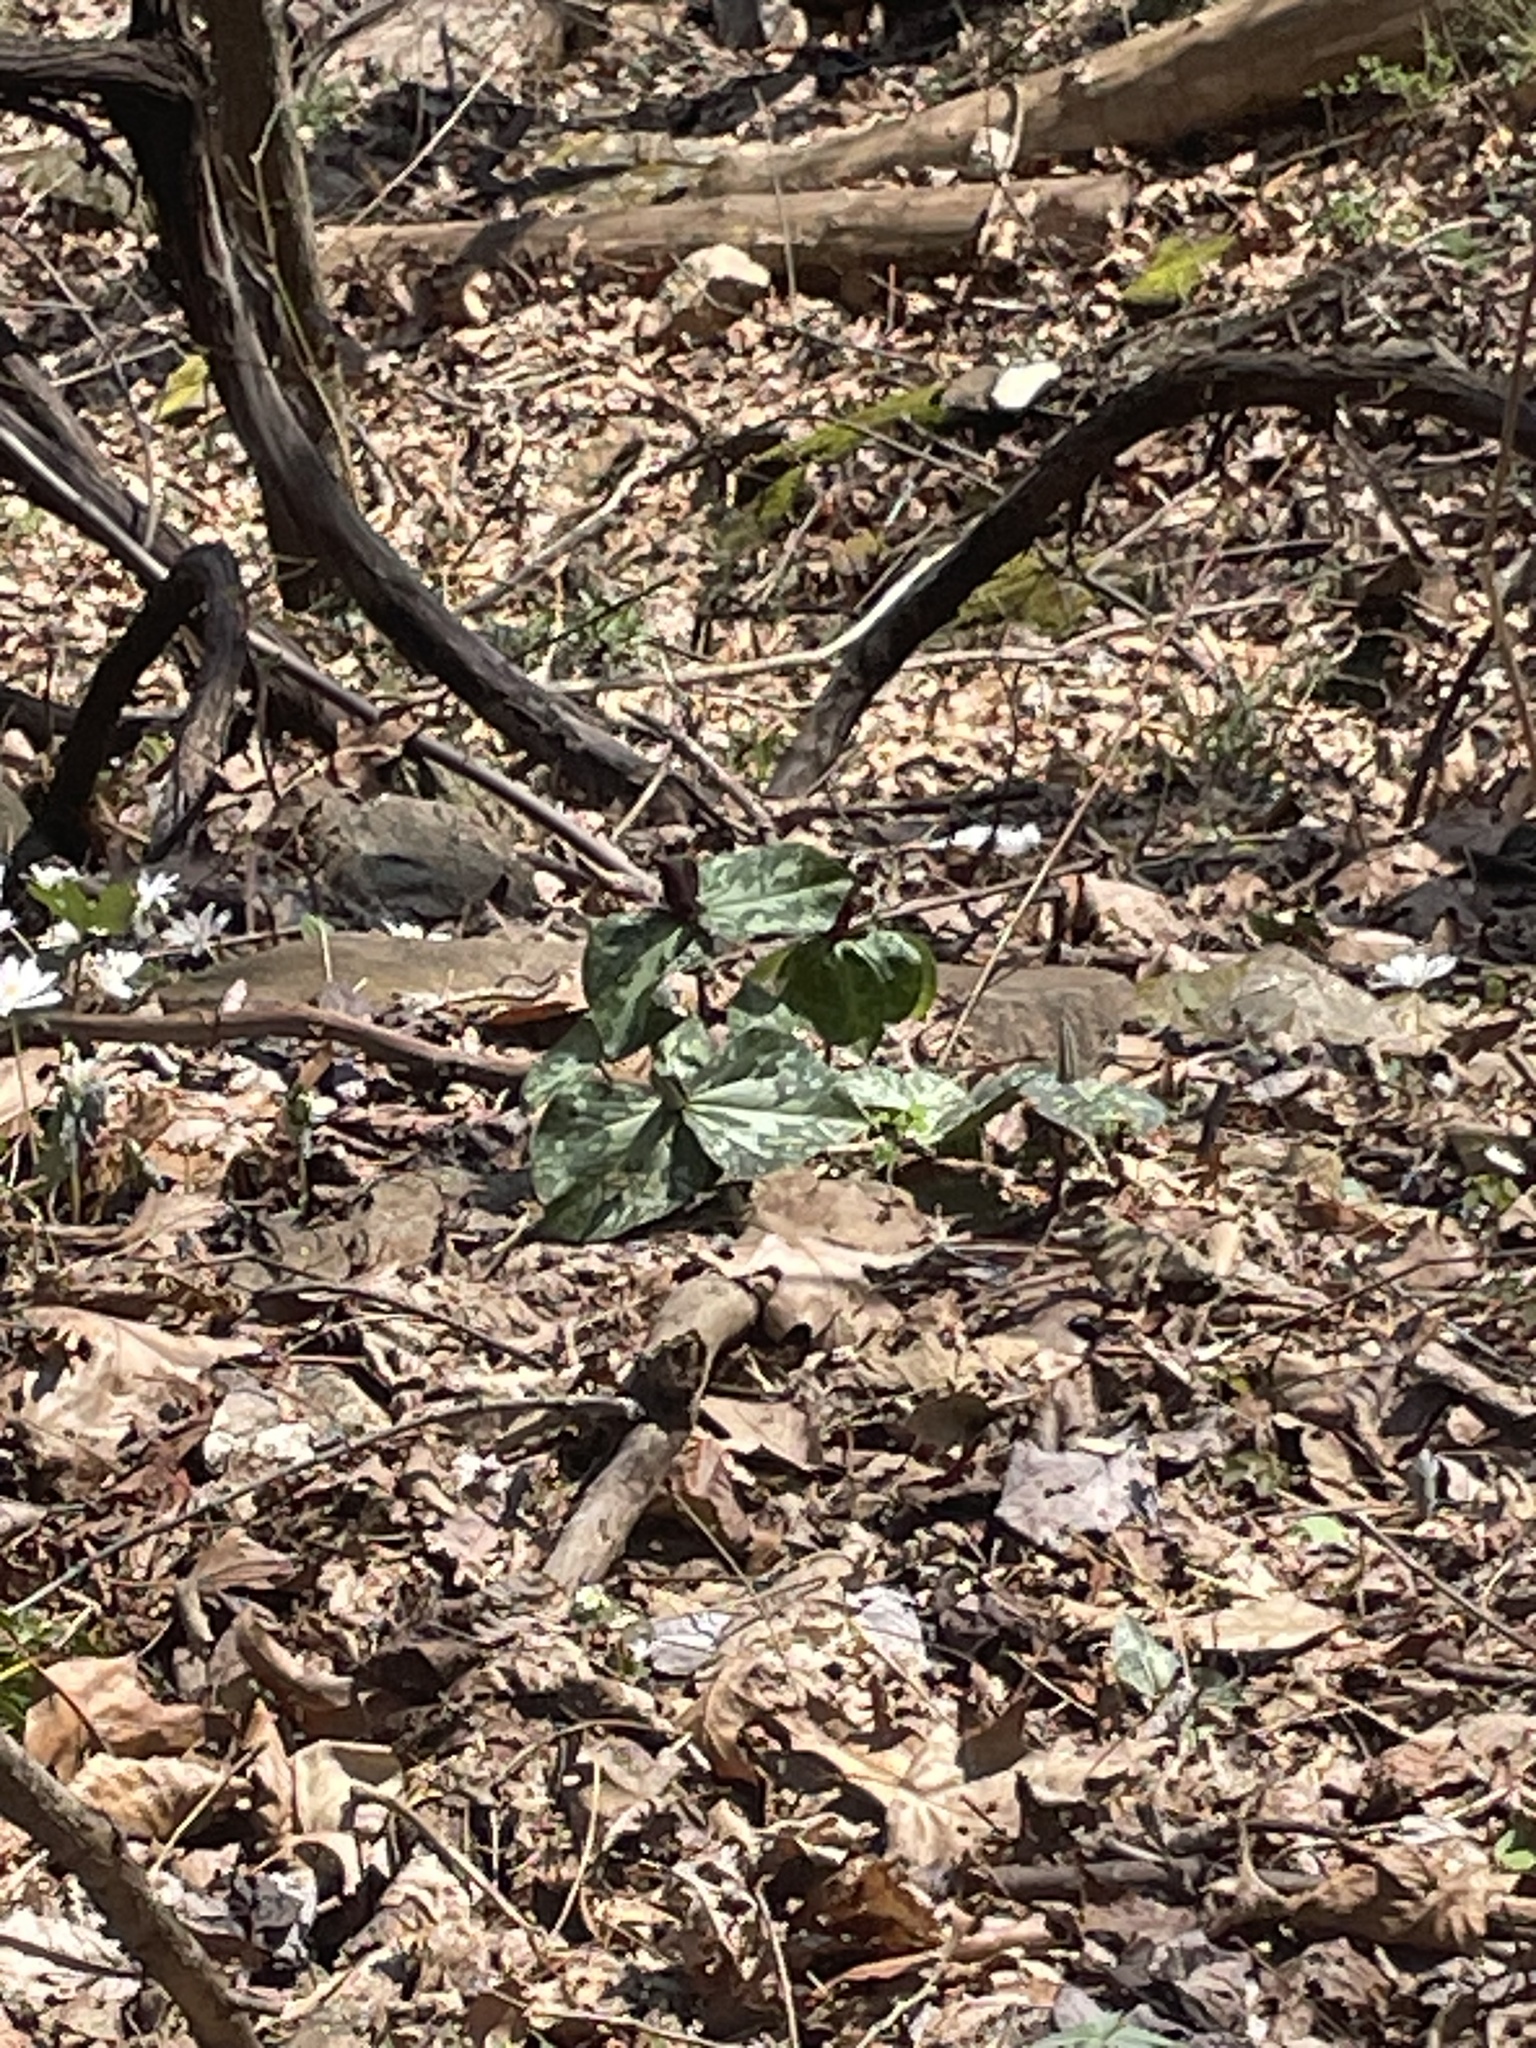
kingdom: Plantae
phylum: Tracheophyta
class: Liliopsida
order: Liliales
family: Melanthiaceae
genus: Trillium
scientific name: Trillium cuneatum
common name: Cuneate trillium
